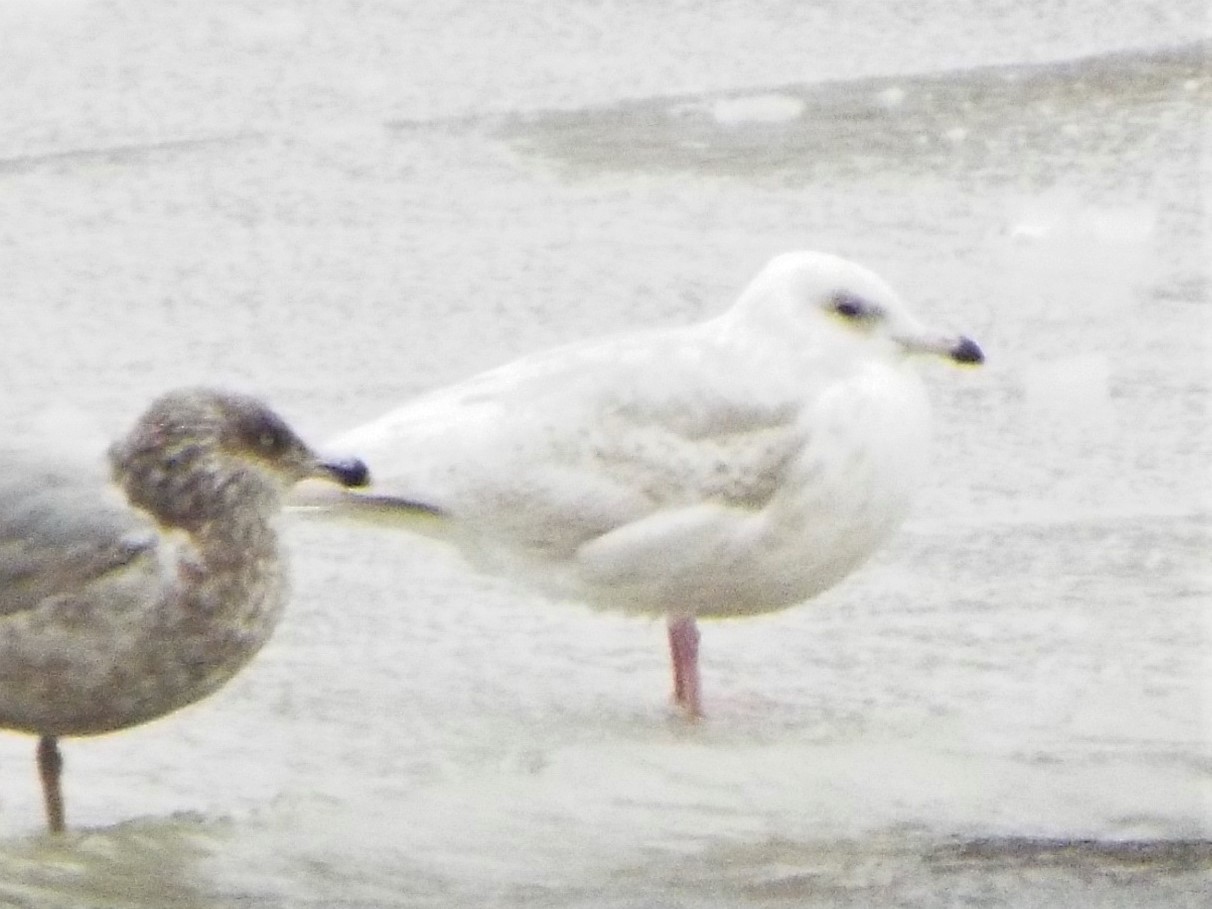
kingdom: Animalia
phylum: Chordata
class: Aves
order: Charadriiformes
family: Laridae
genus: Larus
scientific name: Larus glaucoides
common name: Iceland gull
